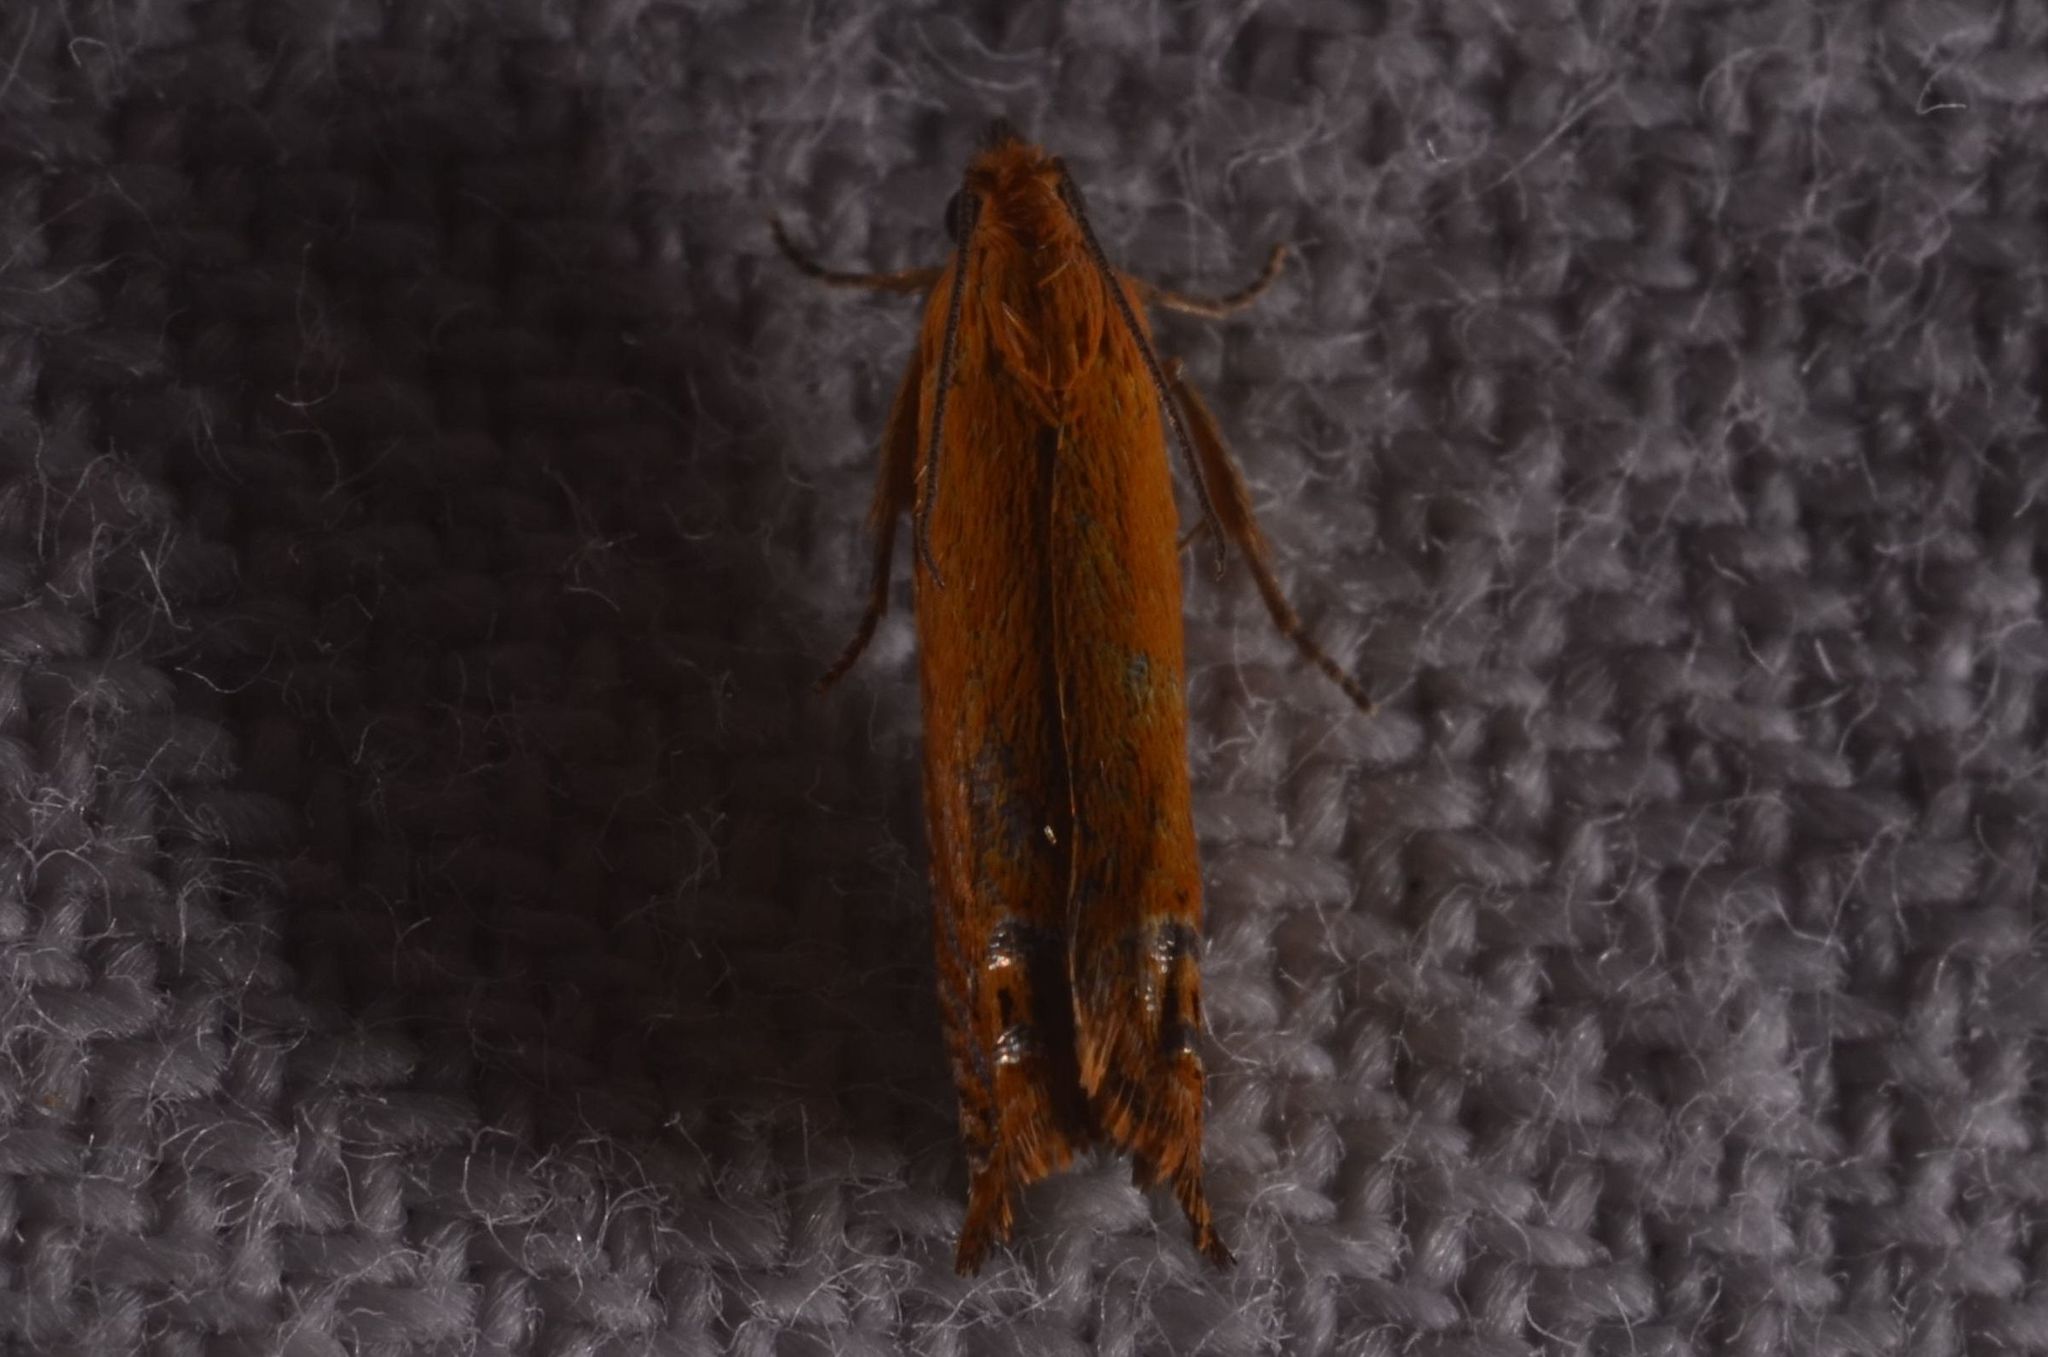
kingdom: Animalia
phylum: Arthropoda
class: Insecta
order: Lepidoptera
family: Tortricidae
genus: Lathronympha
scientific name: Lathronympha strigana
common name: Red piercer
